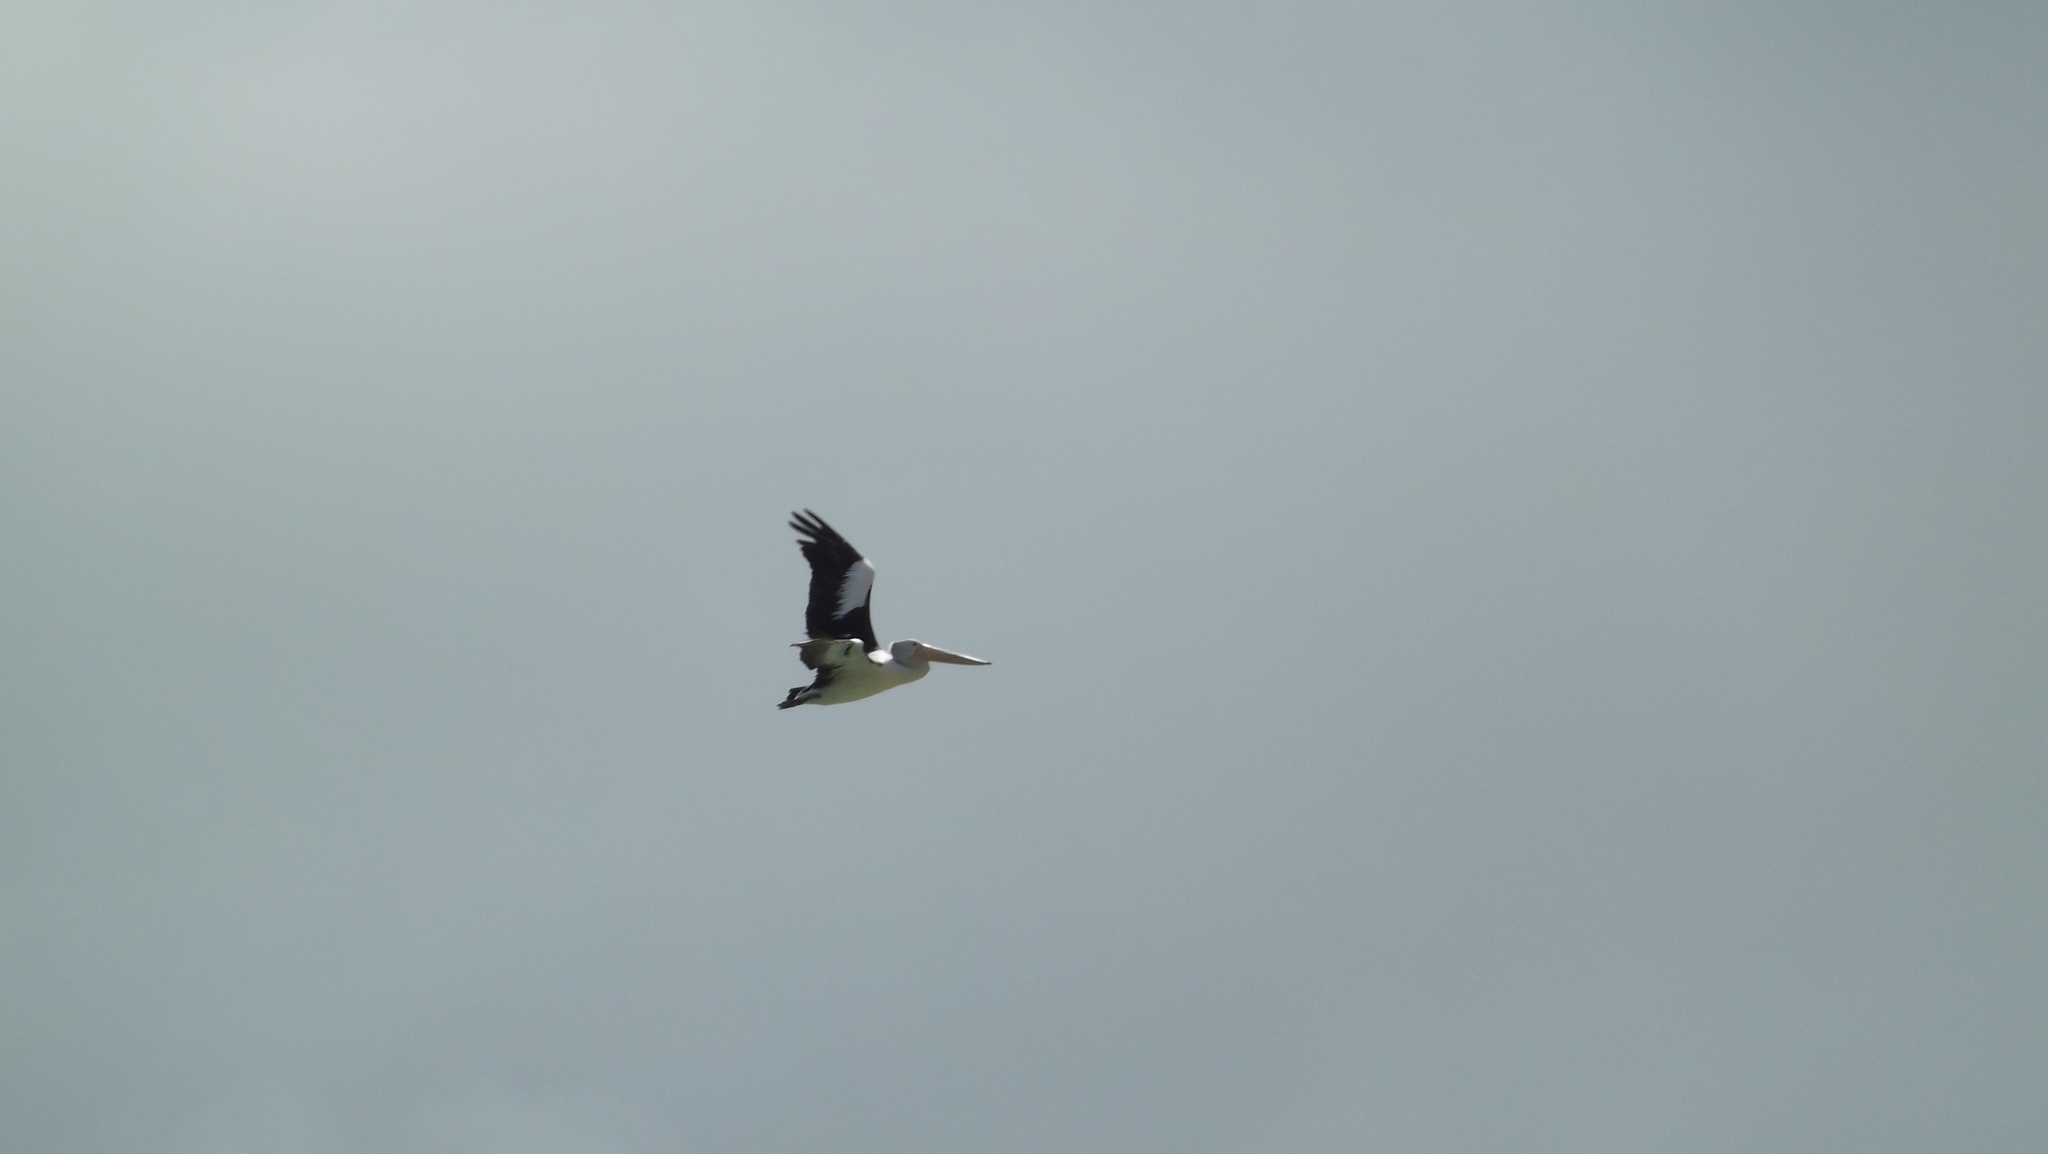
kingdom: Animalia
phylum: Chordata
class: Aves
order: Pelecaniformes
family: Pelecanidae
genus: Pelecanus
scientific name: Pelecanus conspicillatus
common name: Australian pelican
